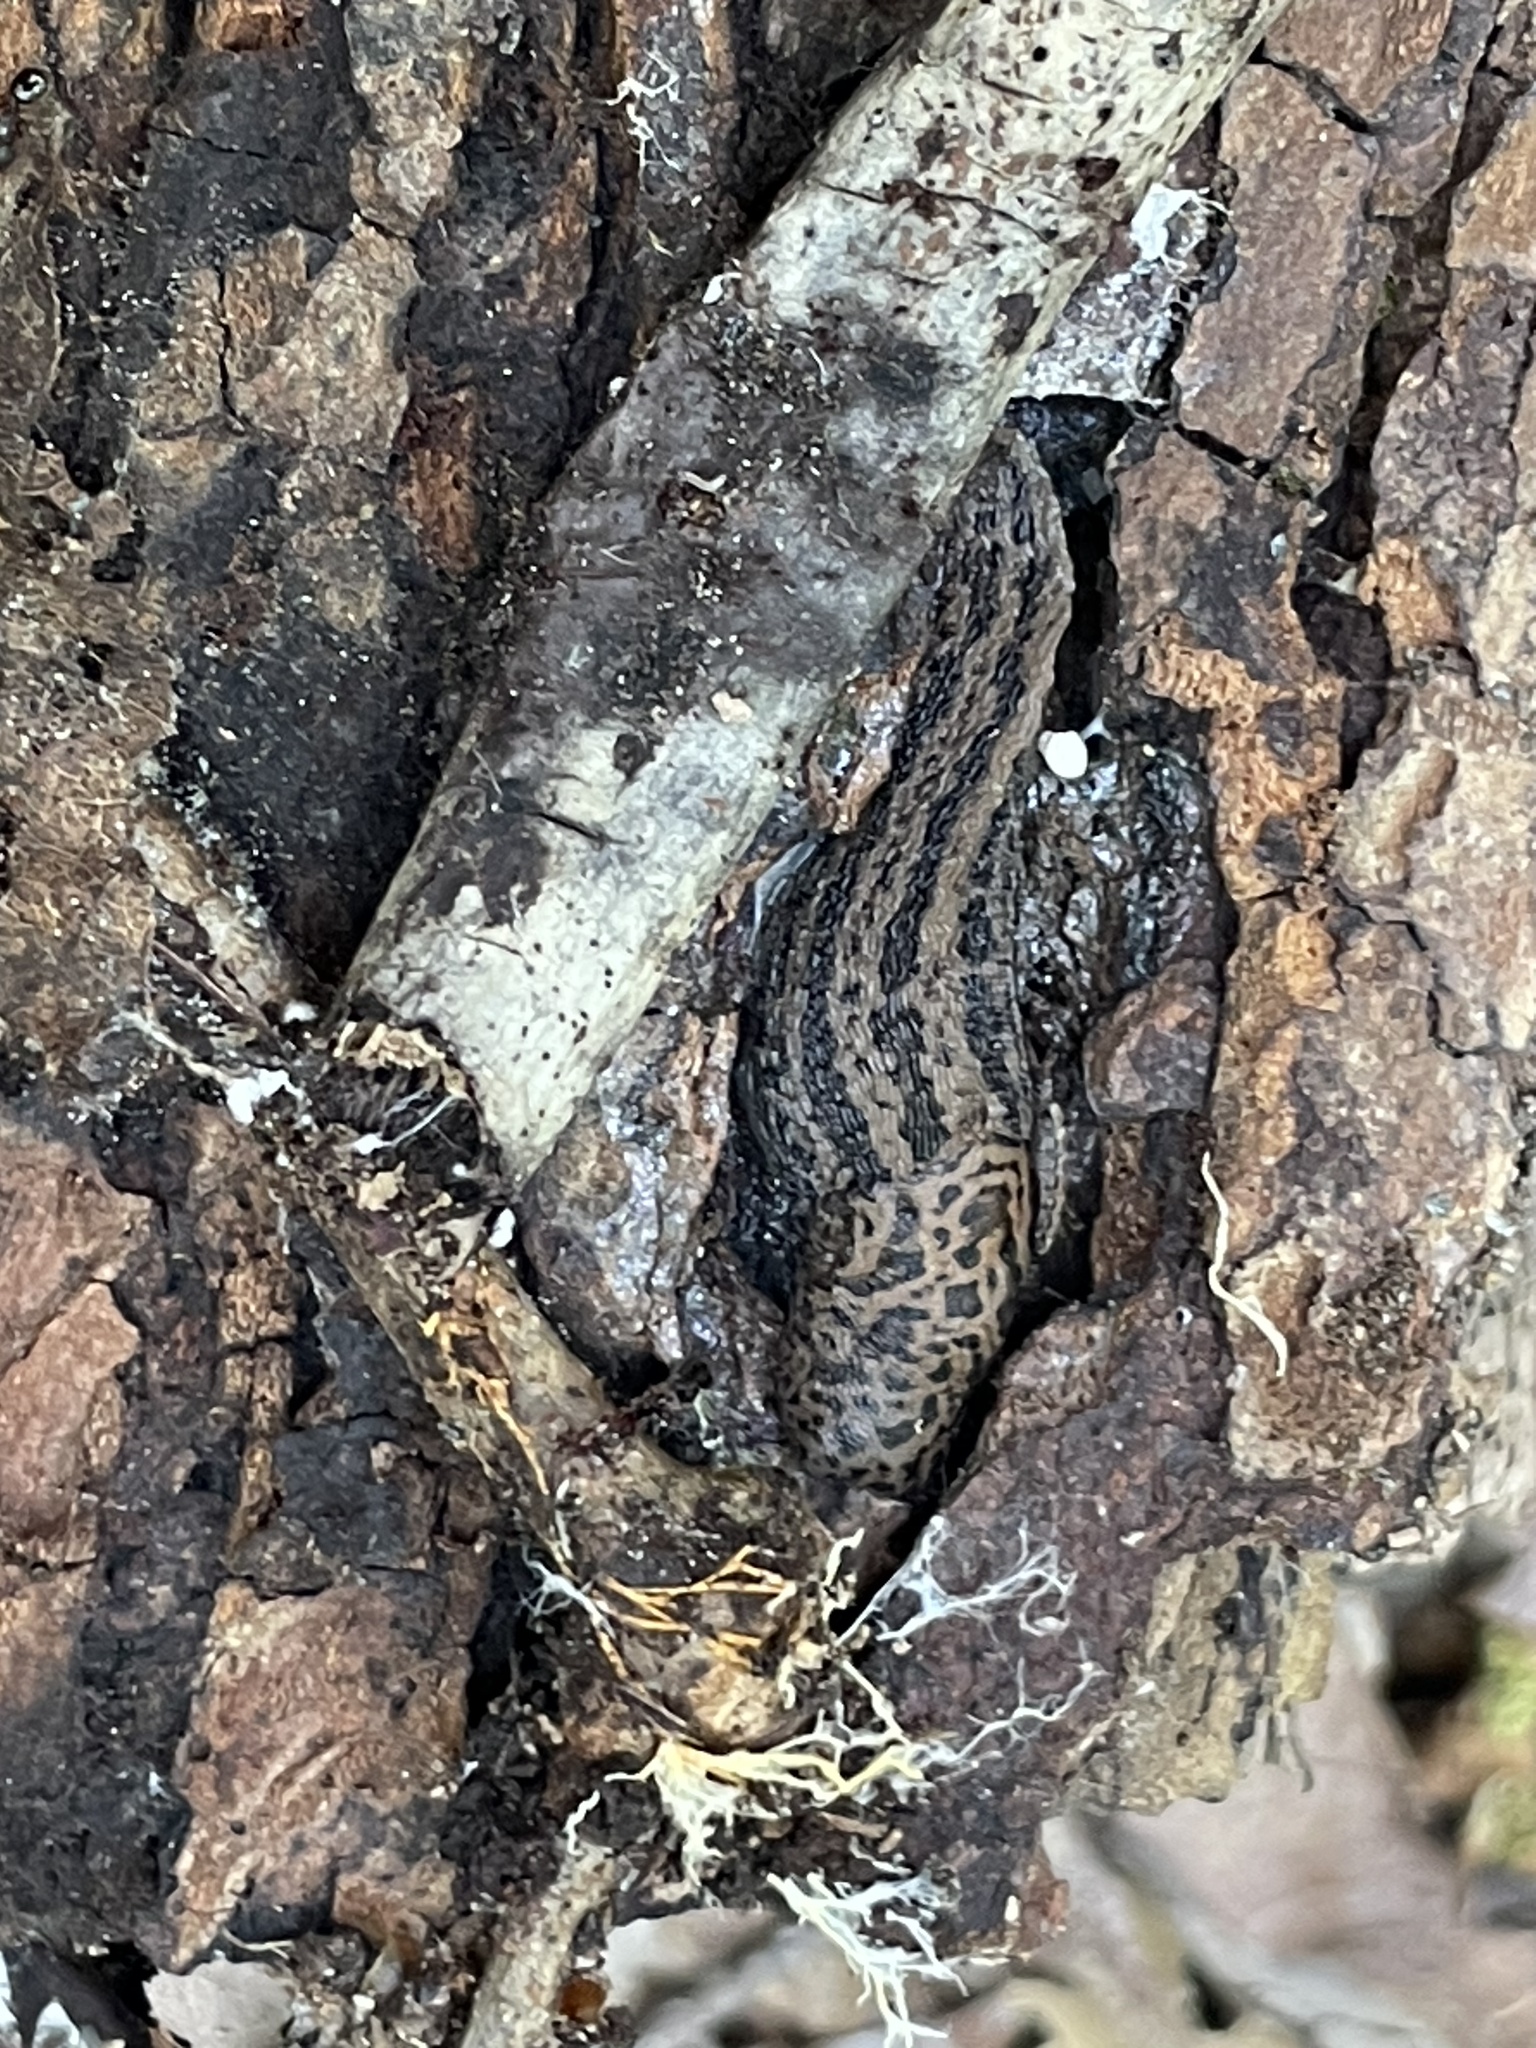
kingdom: Animalia
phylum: Mollusca
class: Gastropoda
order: Stylommatophora
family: Limacidae
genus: Limax
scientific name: Limax maximus
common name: Great grey slug
